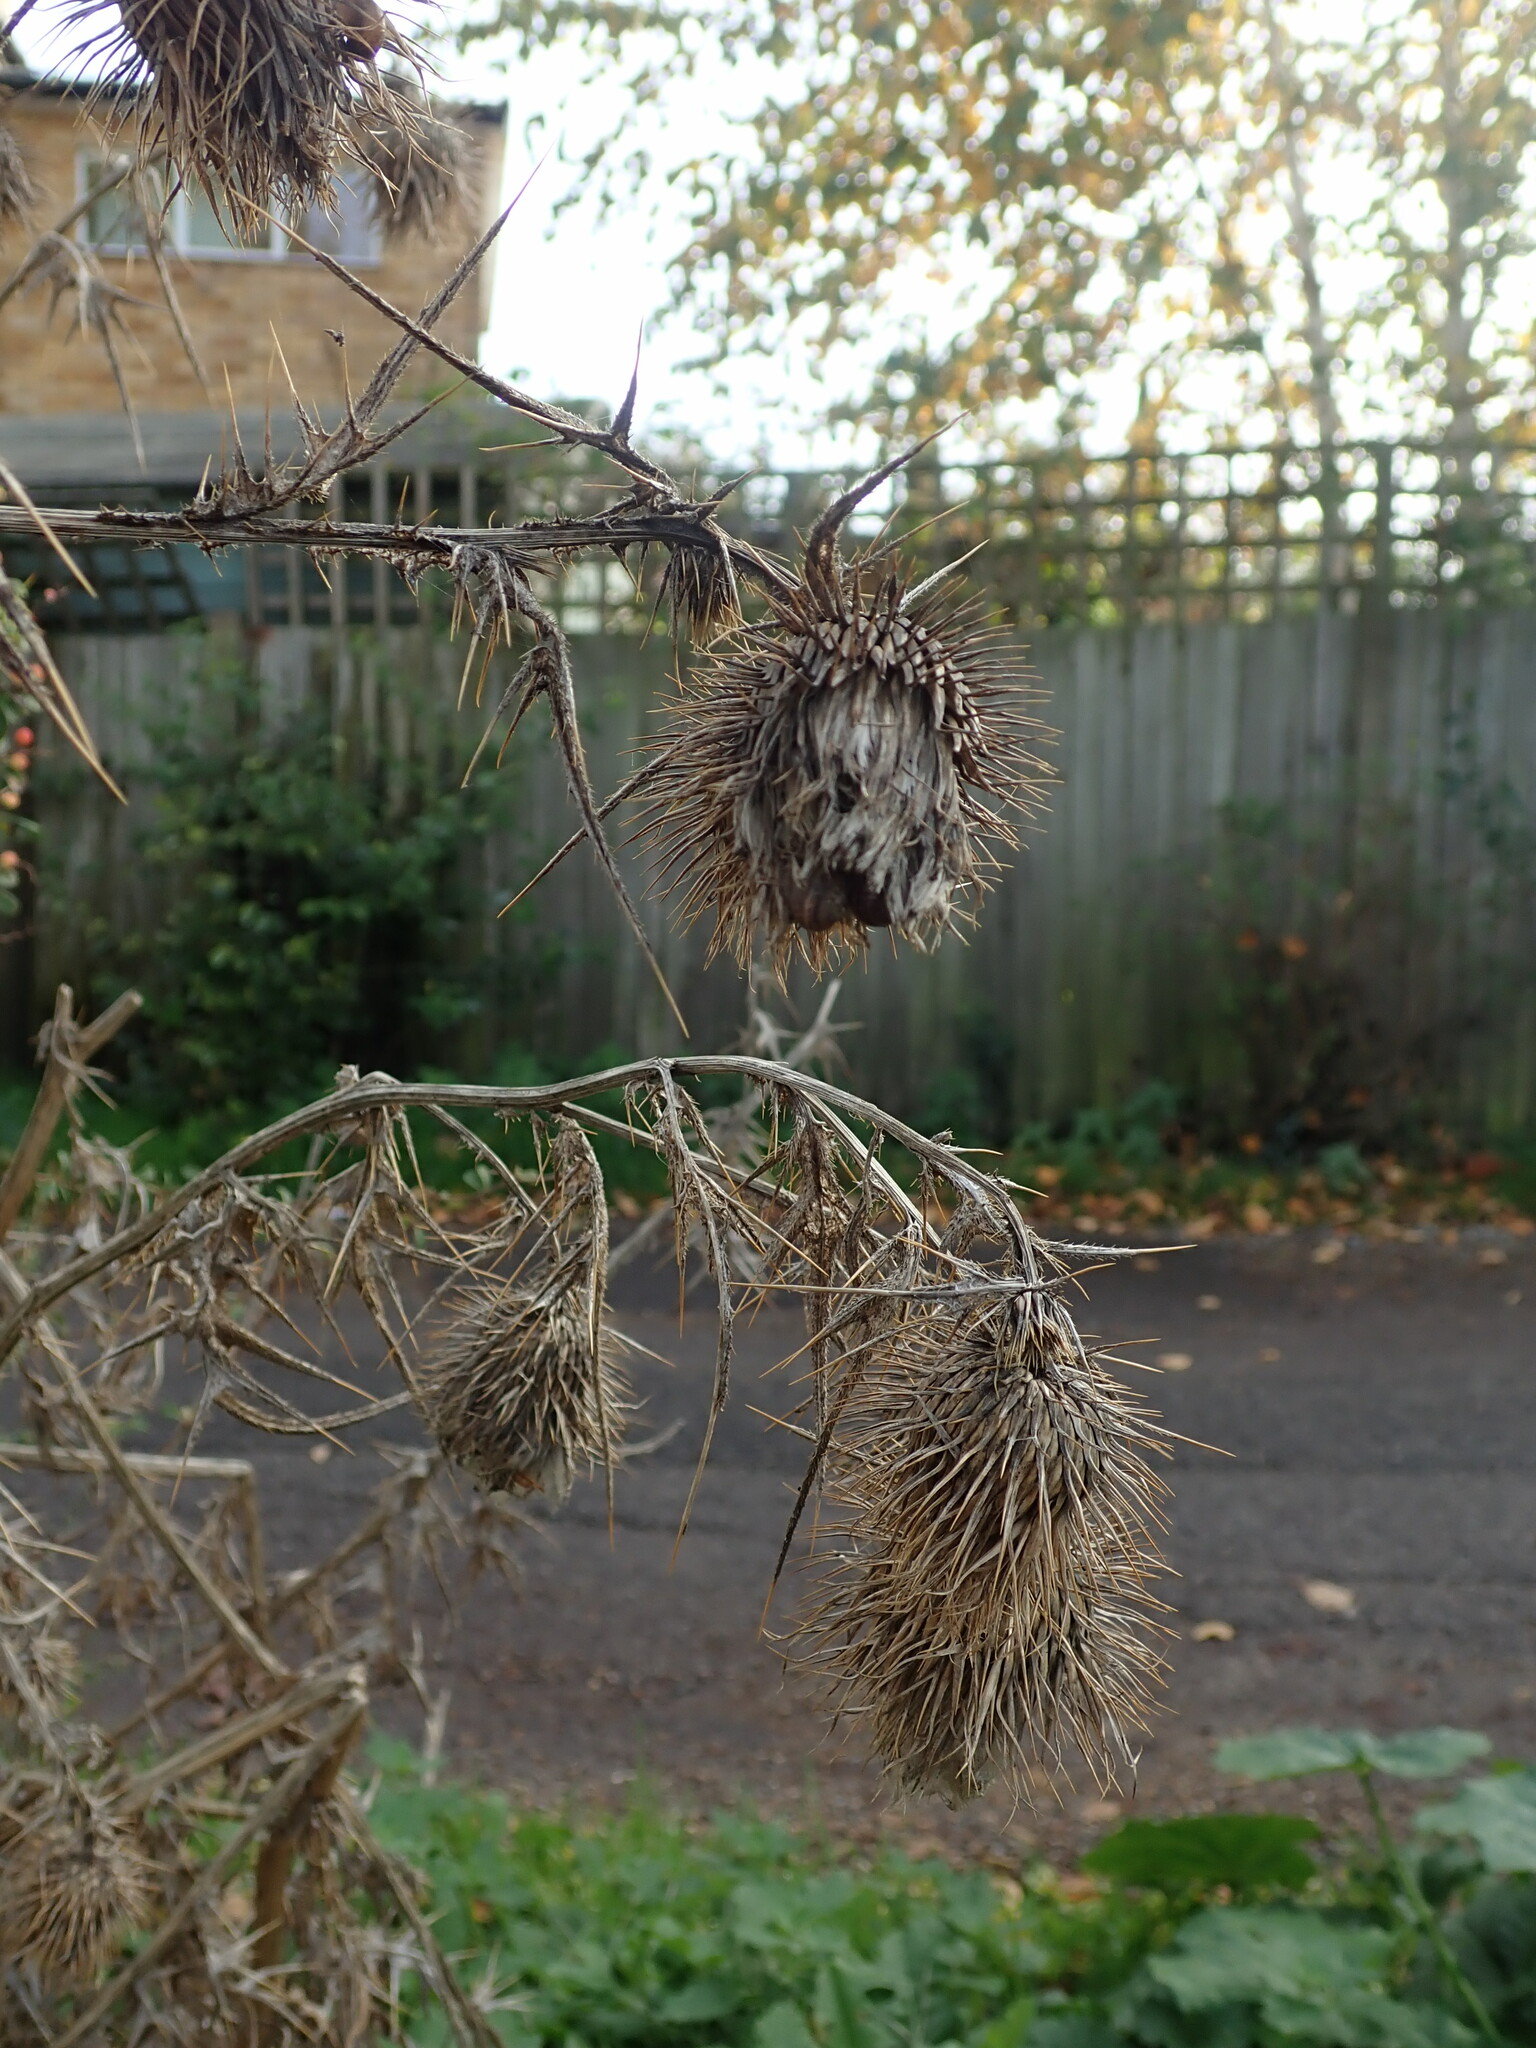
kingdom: Plantae
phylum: Tracheophyta
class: Magnoliopsida
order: Asterales
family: Asteraceae
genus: Cirsium
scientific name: Cirsium vulgare
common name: Bull thistle
